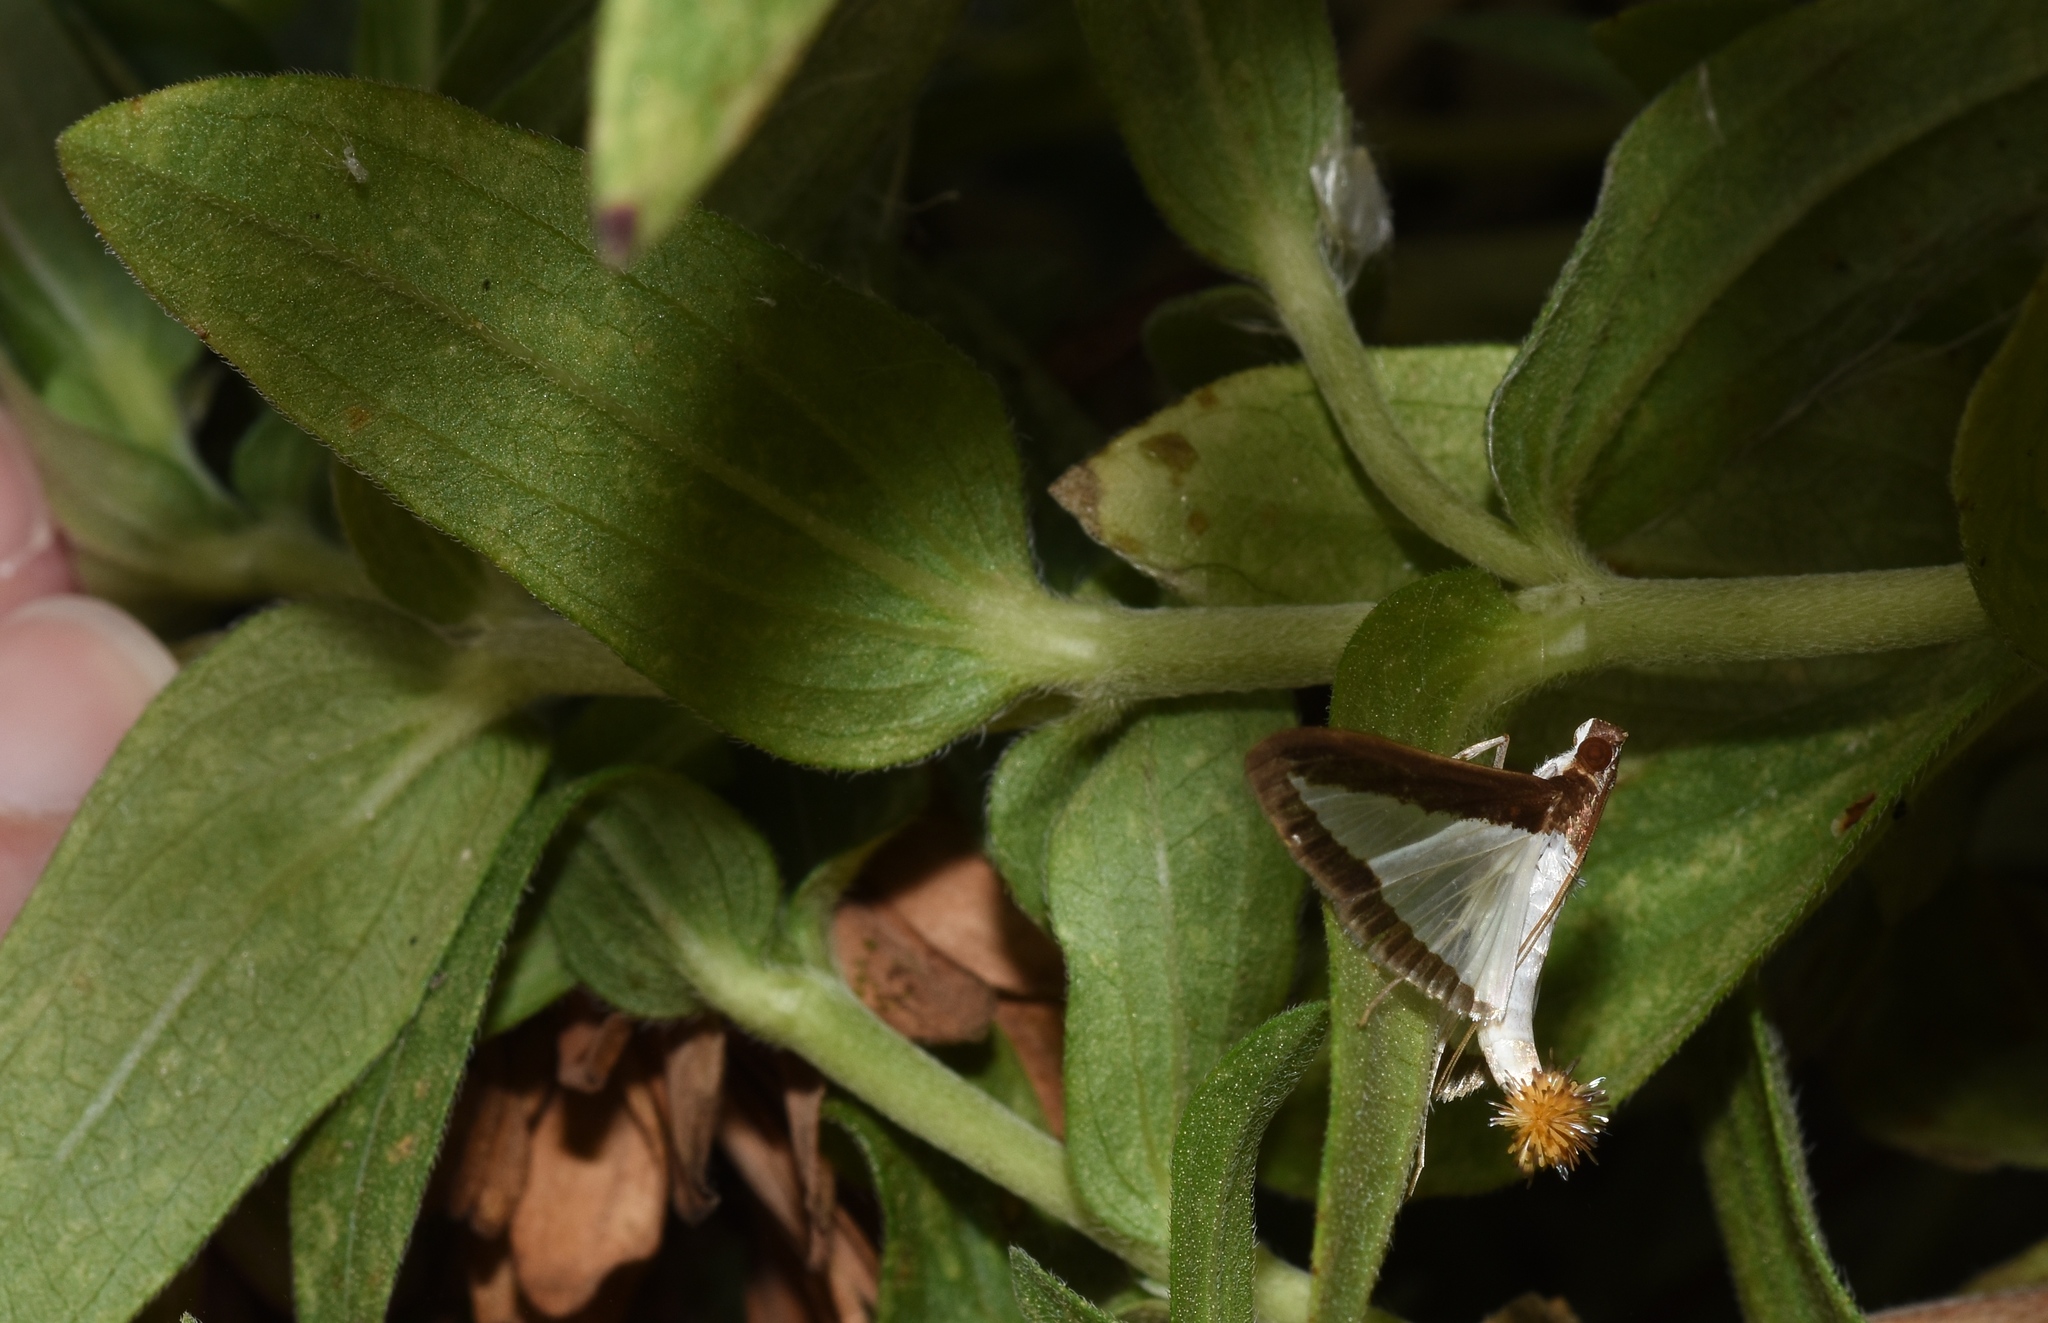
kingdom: Animalia
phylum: Arthropoda
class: Insecta
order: Lepidoptera
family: Crambidae
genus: Diaphania
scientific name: Diaphania hyalinata
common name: Melonworm
